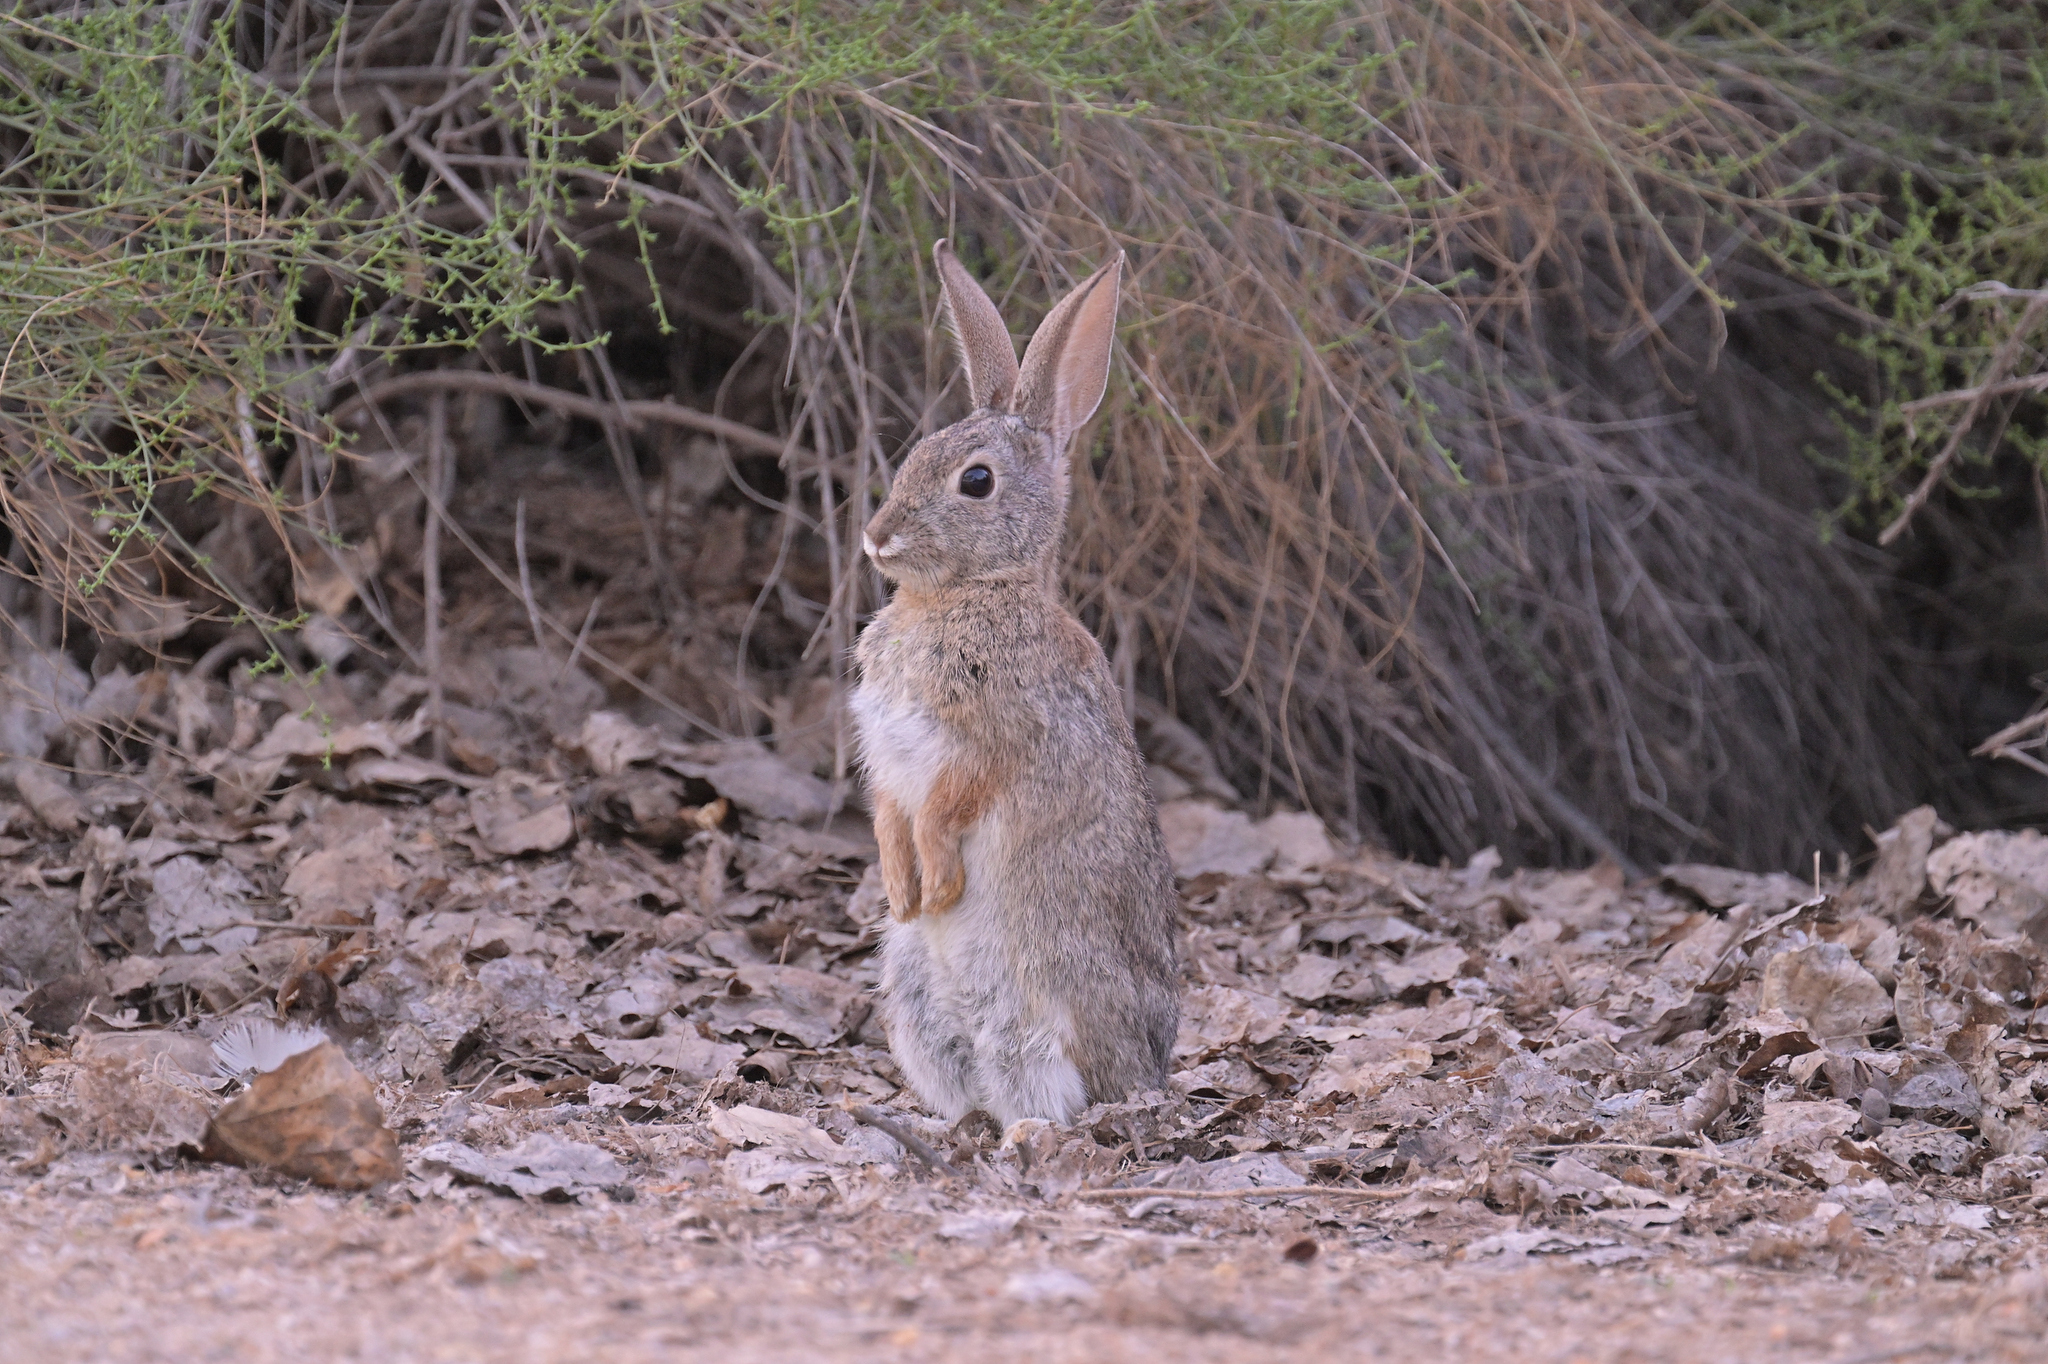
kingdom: Animalia
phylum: Chordata
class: Mammalia
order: Lagomorpha
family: Leporidae
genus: Sylvilagus
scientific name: Sylvilagus audubonii
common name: Desert cottontail
